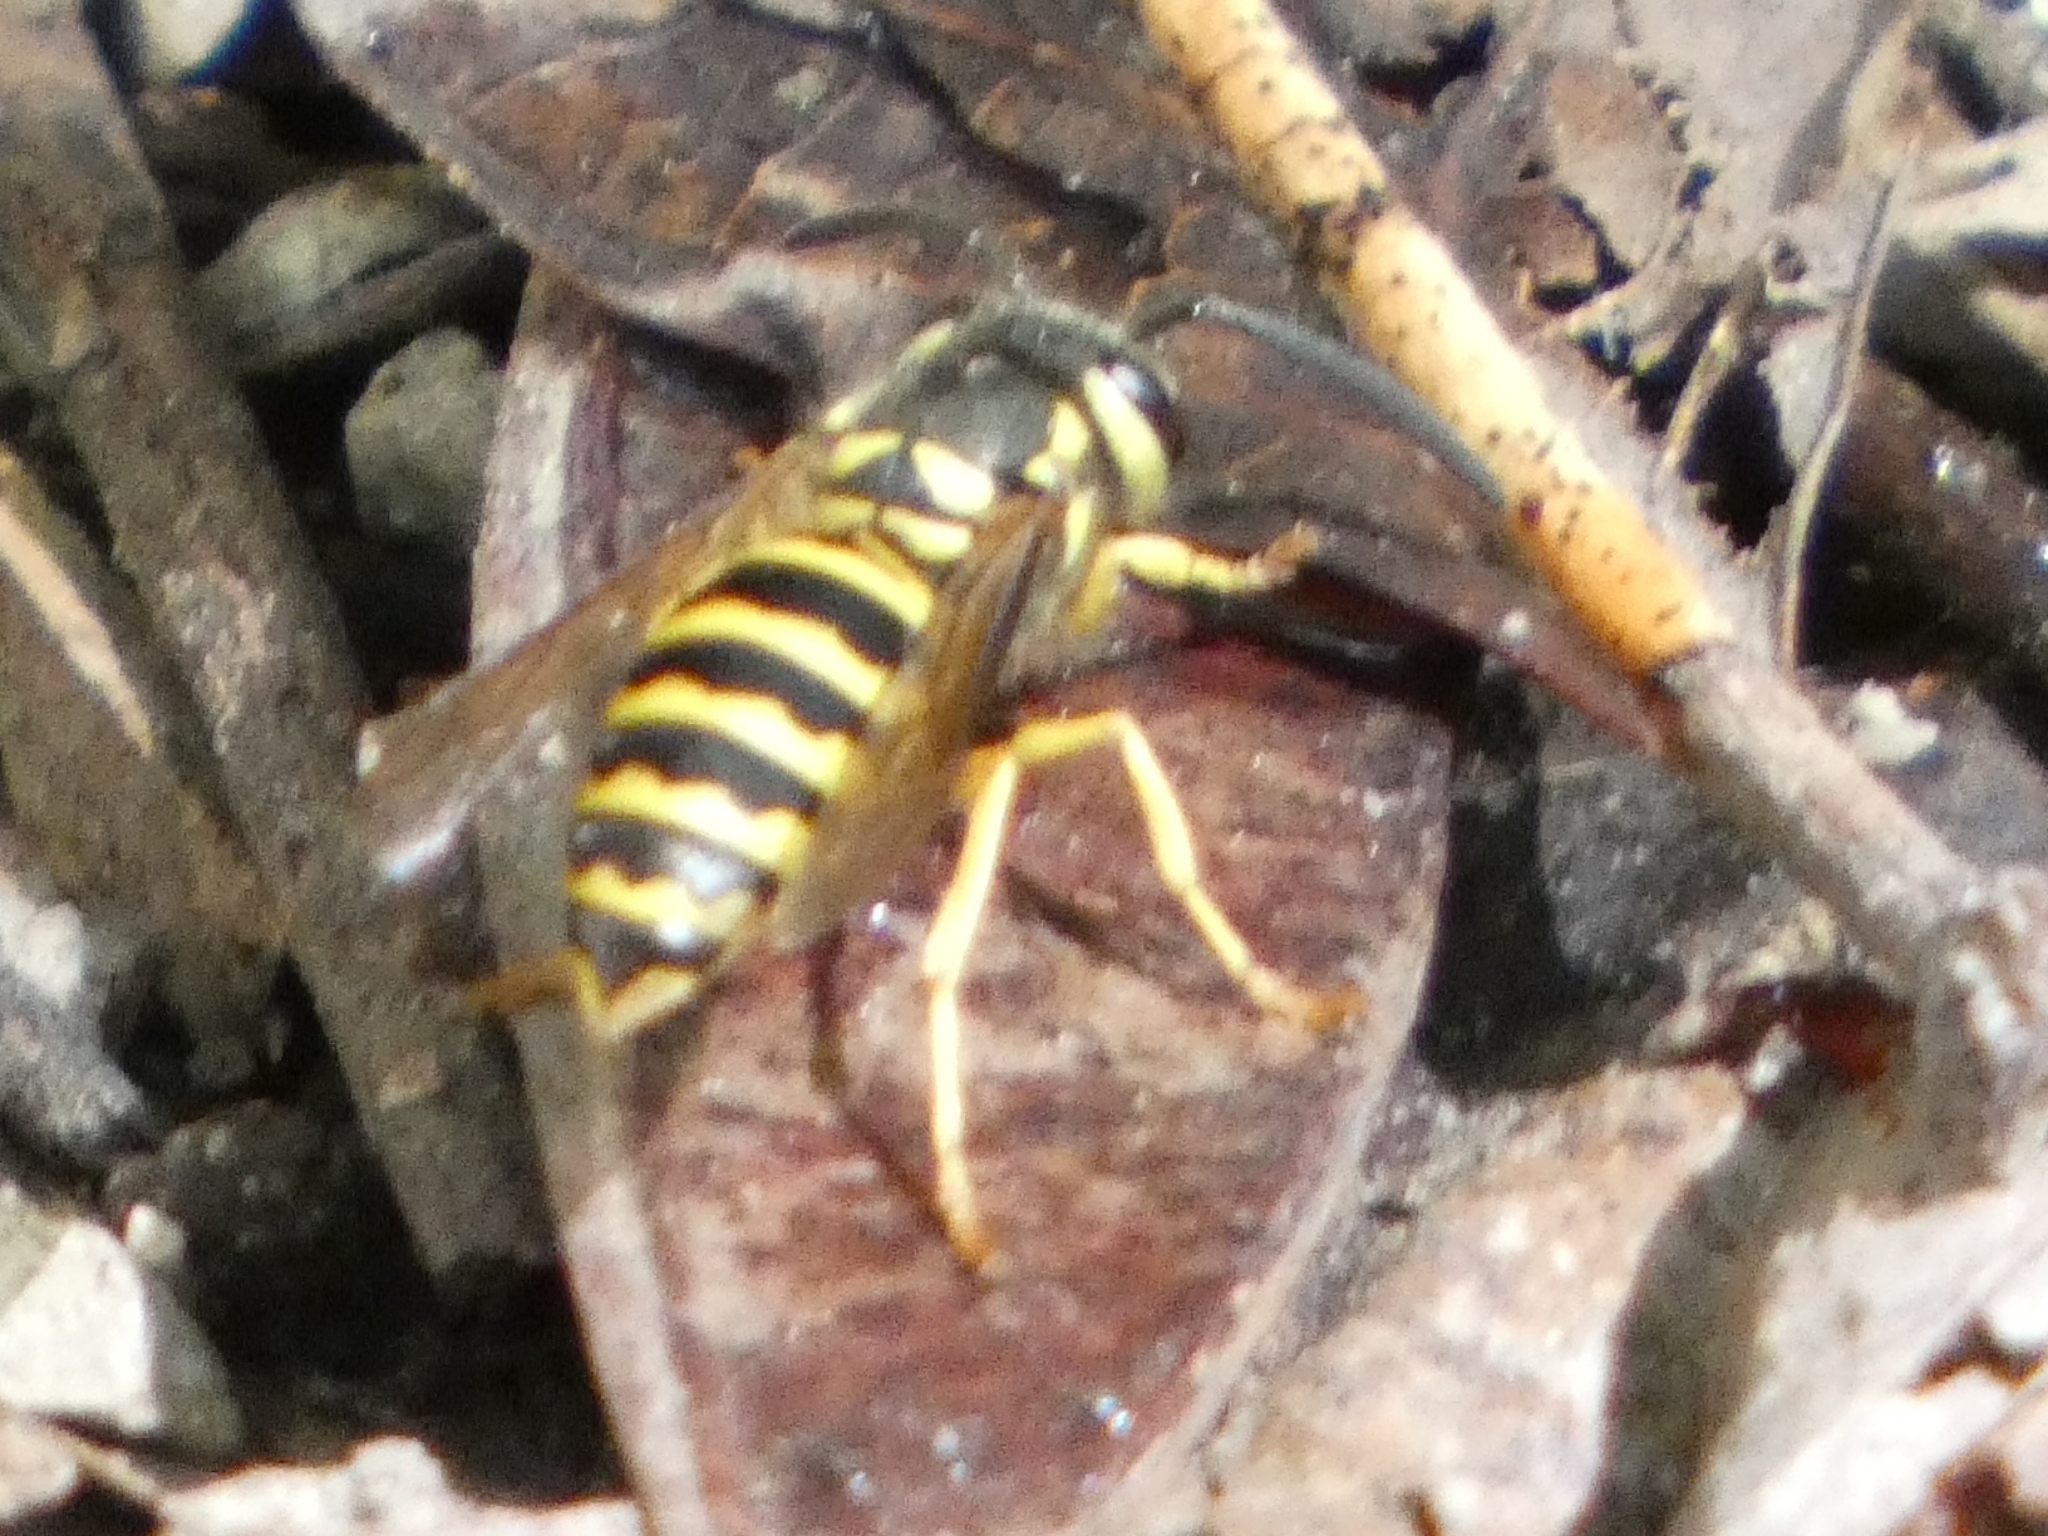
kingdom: Animalia
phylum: Arthropoda
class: Insecta
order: Hymenoptera
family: Vespidae
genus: Vespula
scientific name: Vespula maculifrons
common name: Eastern yellowjacket
